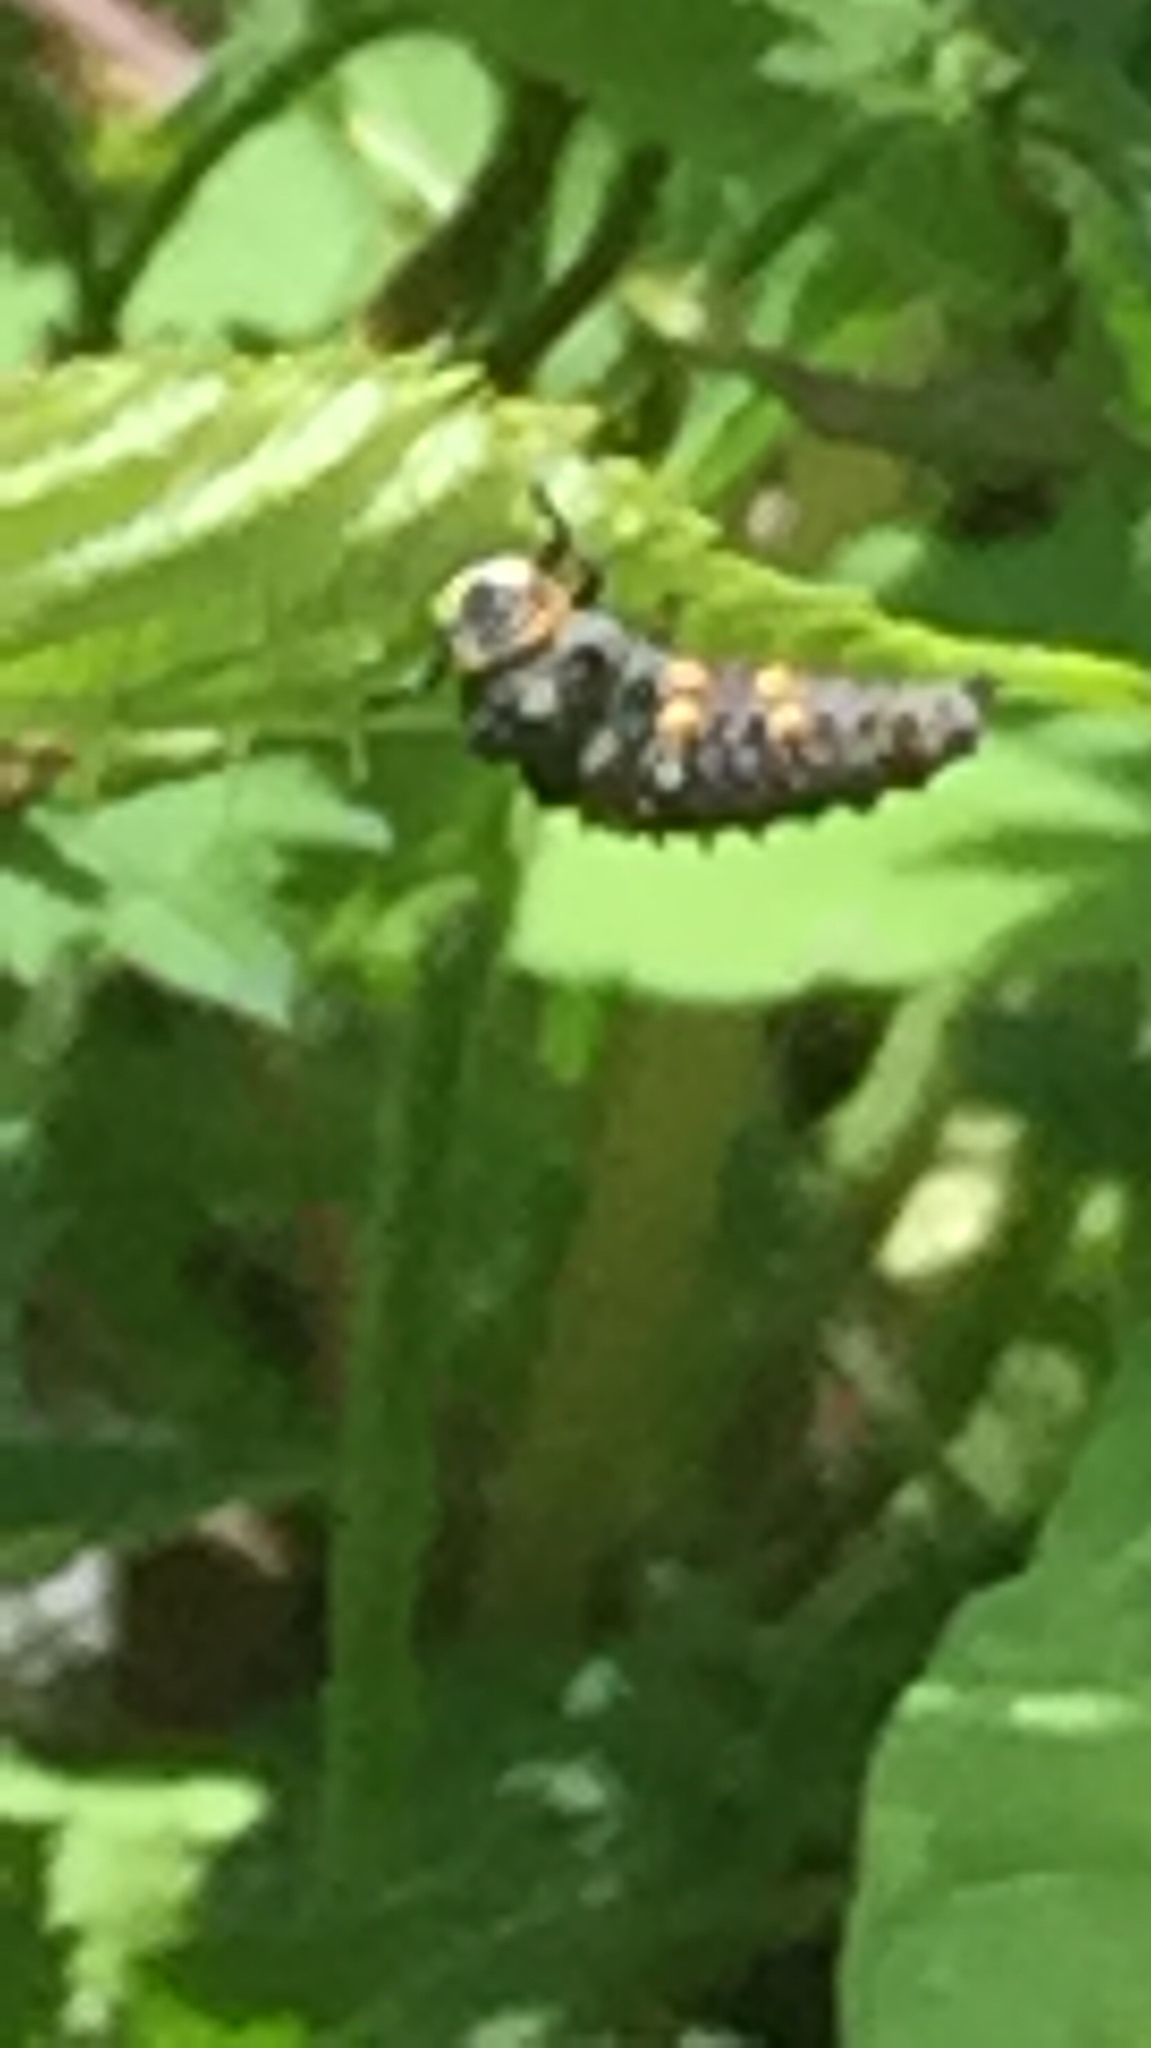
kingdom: Animalia
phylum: Arthropoda
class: Insecta
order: Coleoptera
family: Coccinellidae
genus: Coccinella
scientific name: Coccinella septempunctata
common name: Sevenspotted lady beetle
